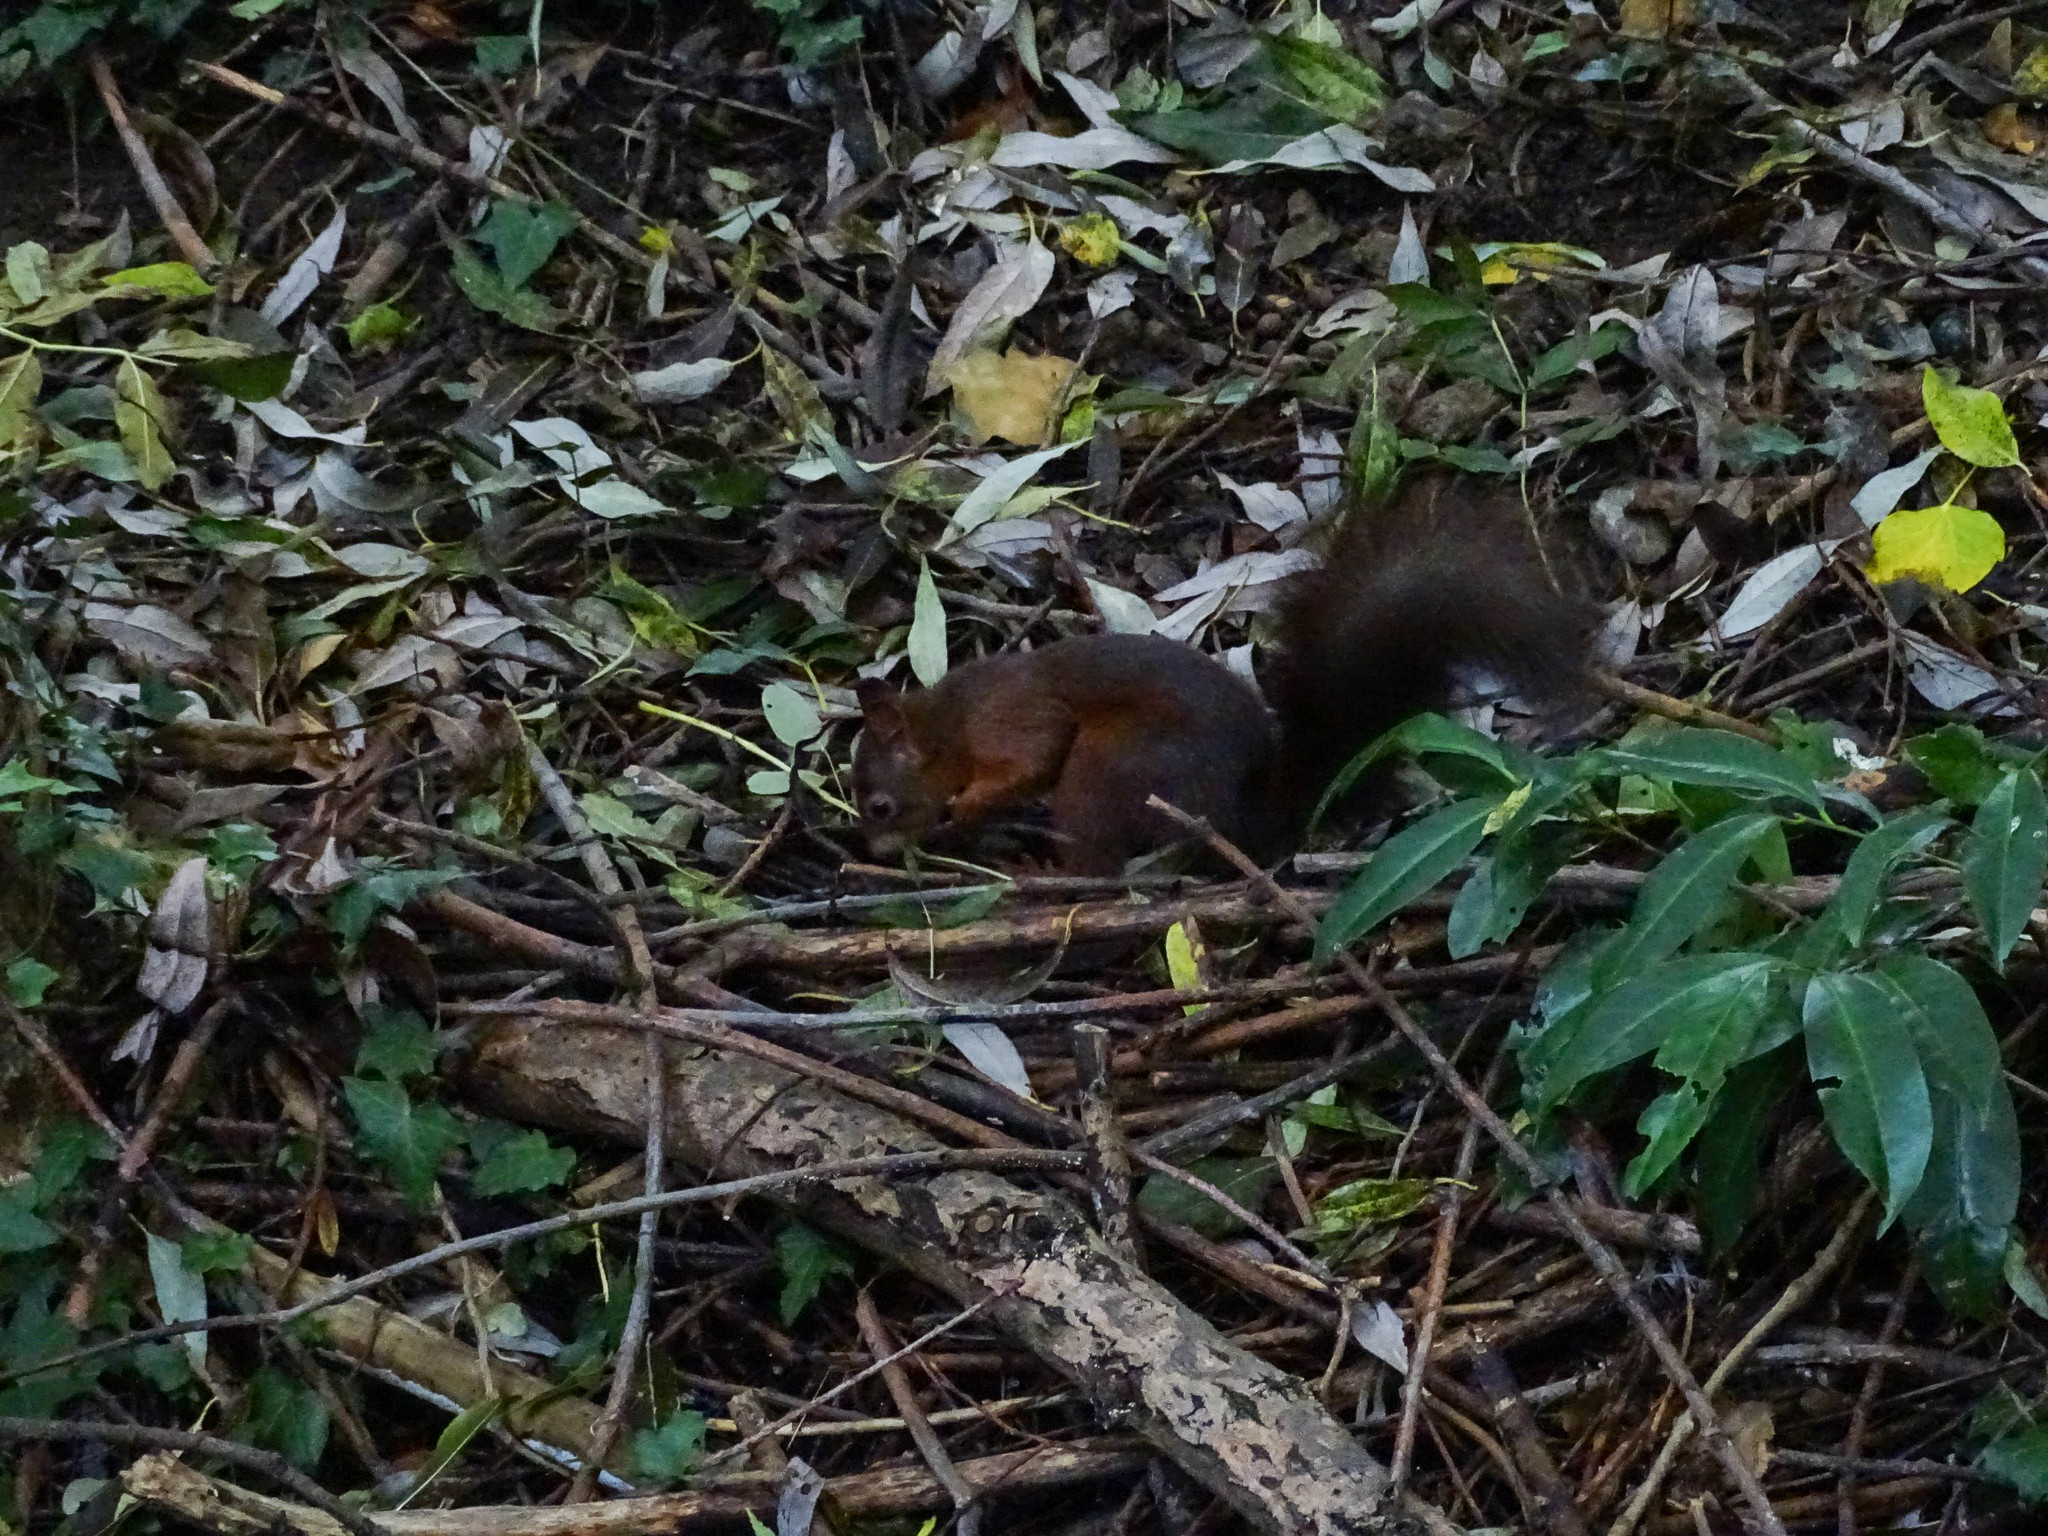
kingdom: Animalia
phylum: Chordata
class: Mammalia
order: Rodentia
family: Sciuridae
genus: Sciurus
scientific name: Sciurus vulgaris
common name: Eurasian red squirrel
